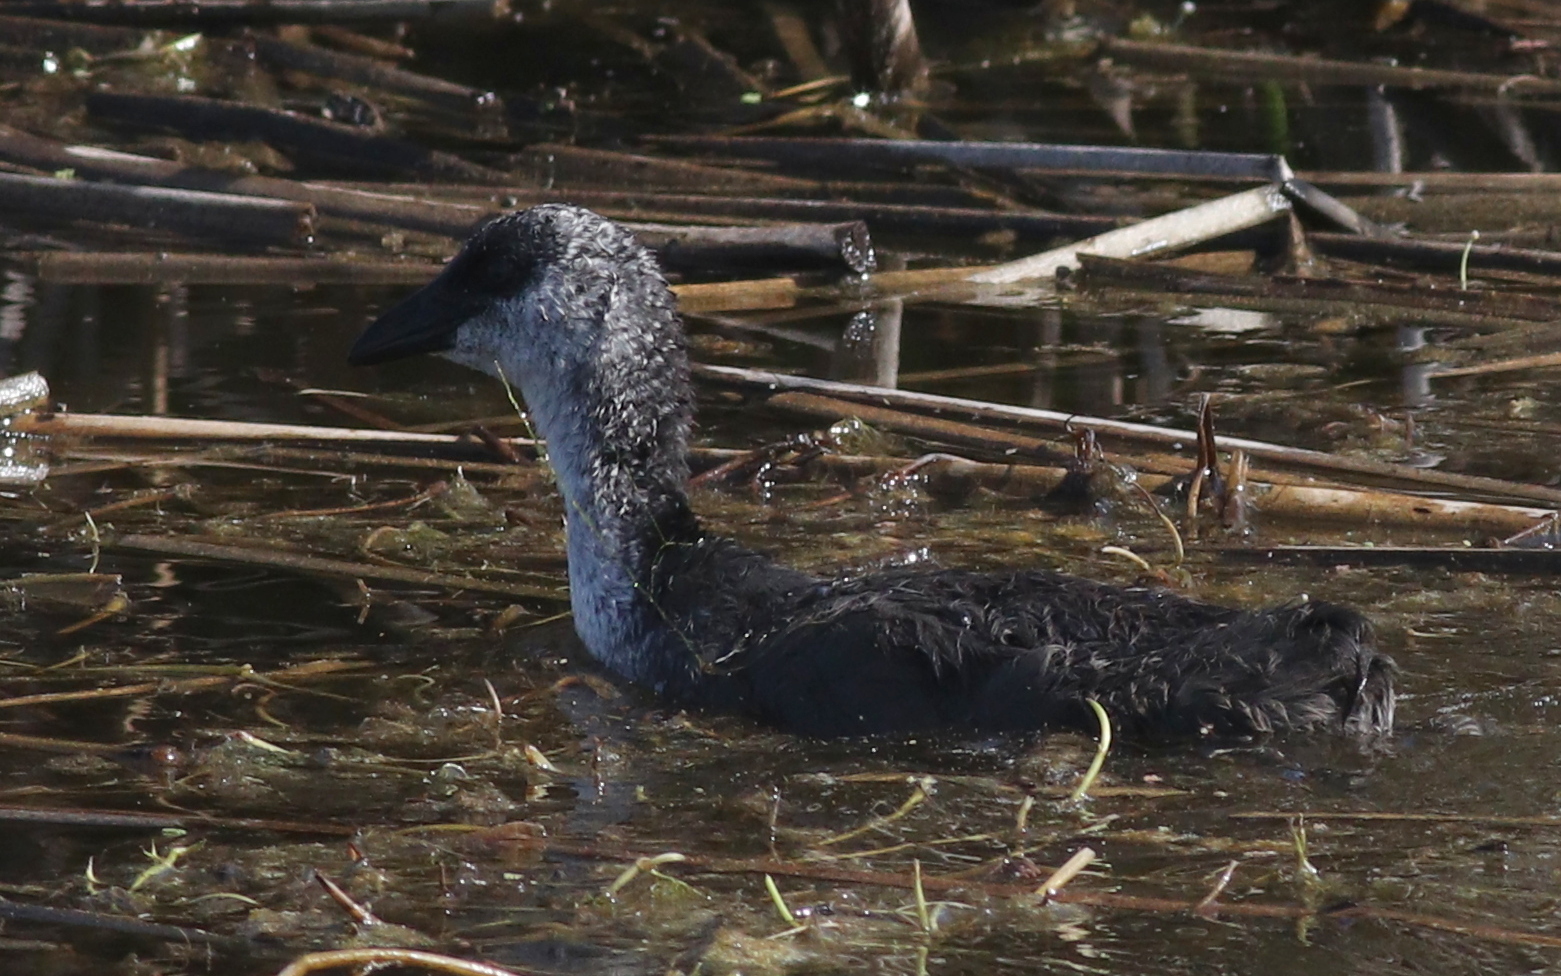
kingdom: Animalia
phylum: Chordata
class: Aves
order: Gruiformes
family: Rallidae
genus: Fulica
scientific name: Fulica armillata
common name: Red-gartered coot
